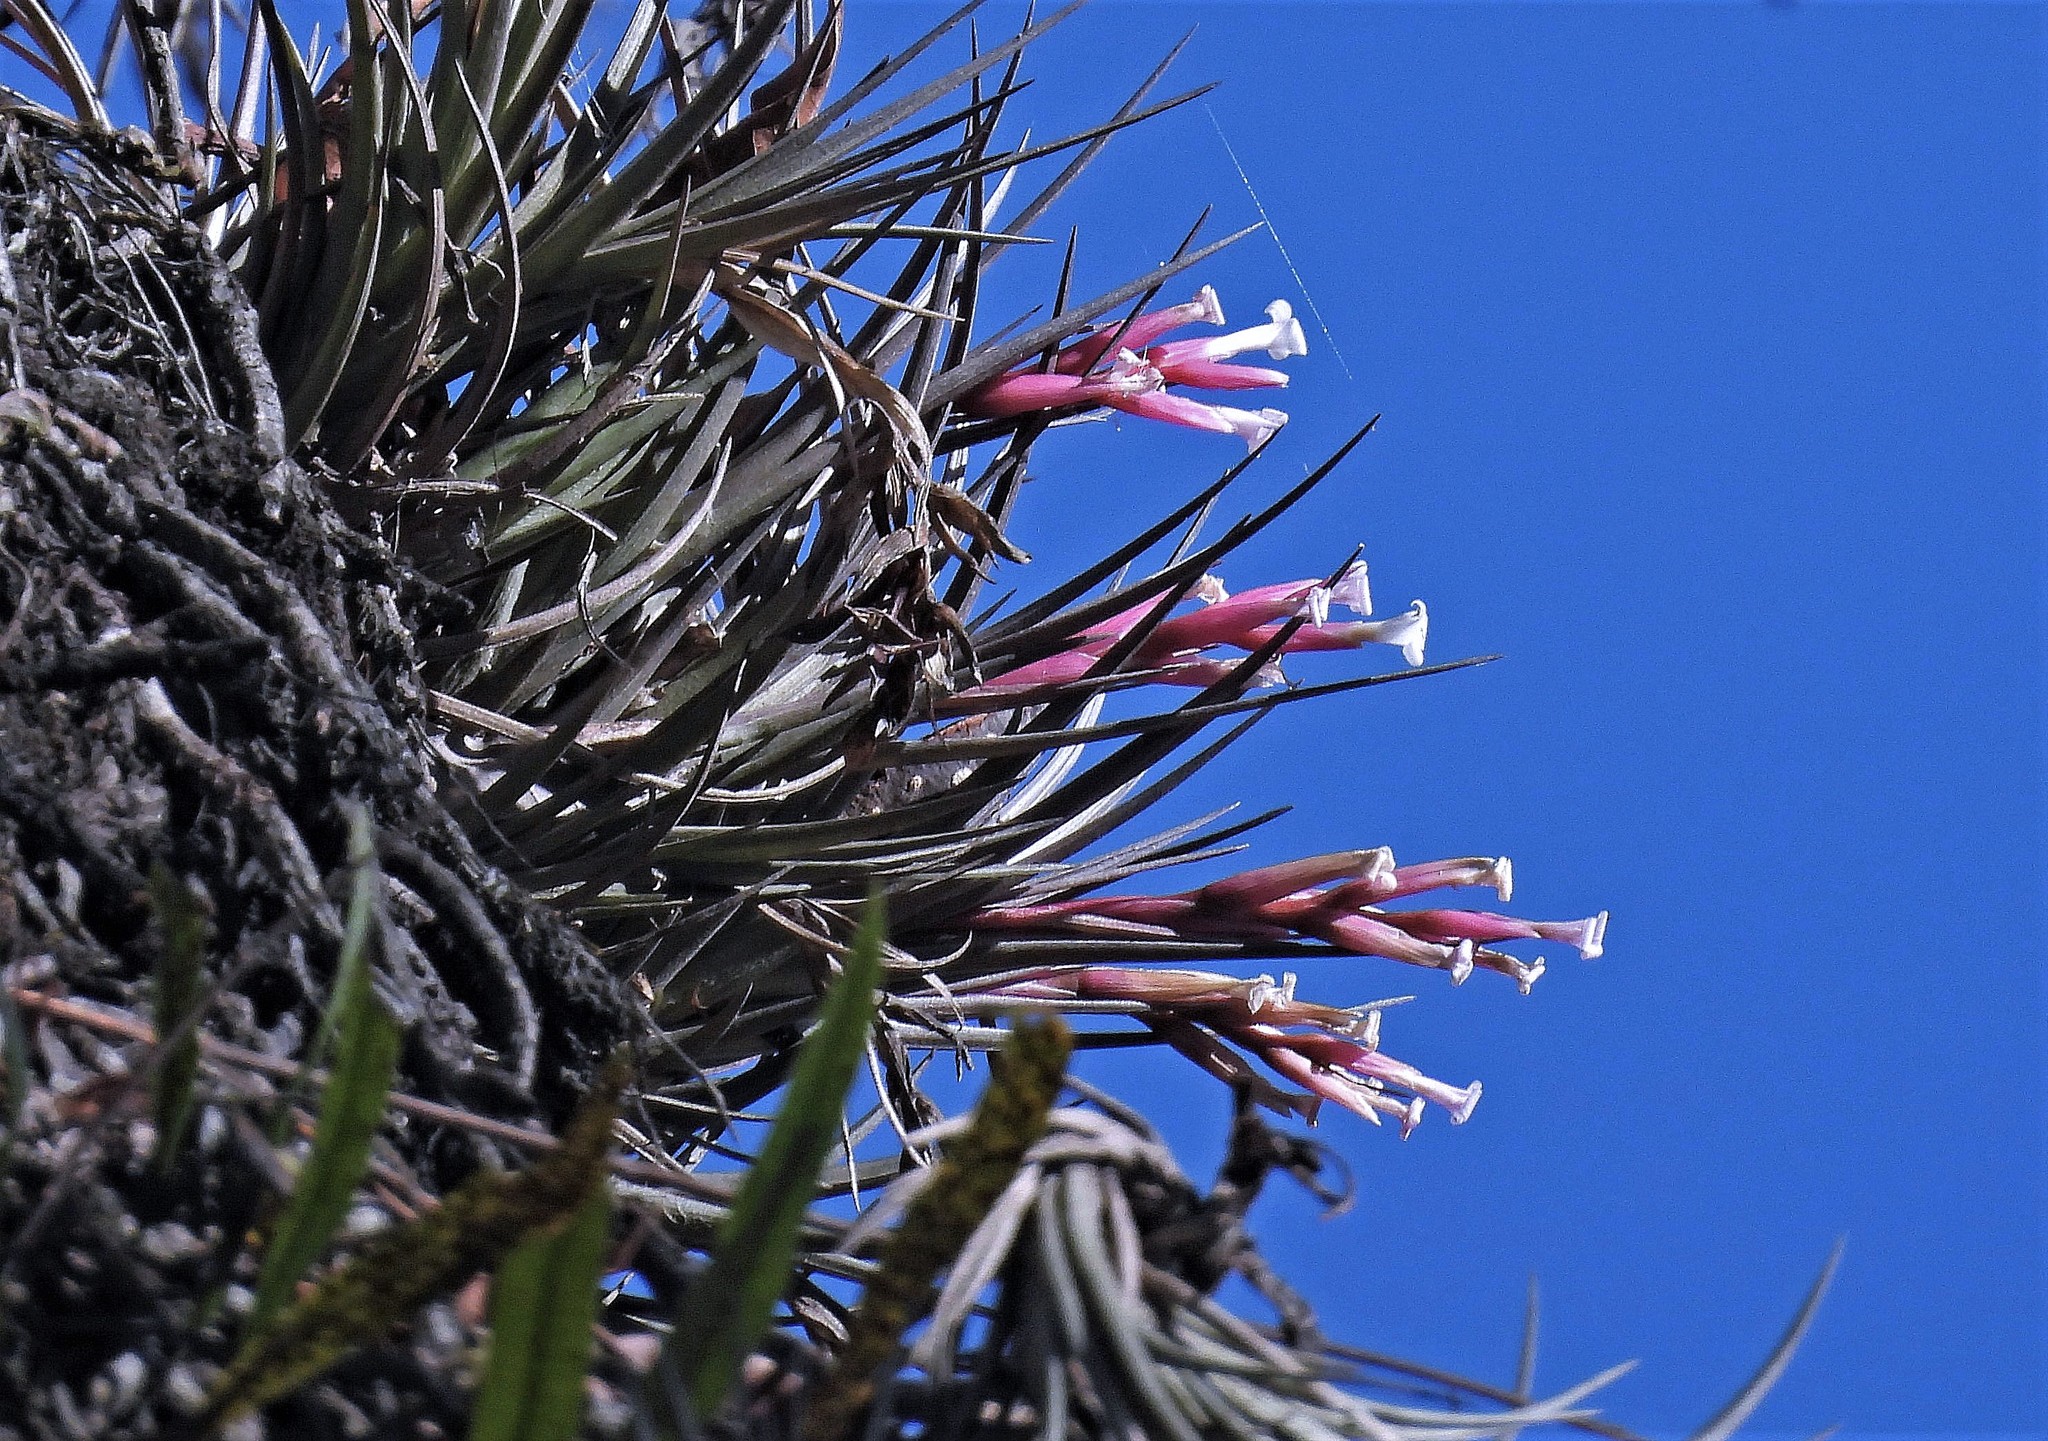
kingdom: Plantae
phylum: Tracheophyta
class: Liliopsida
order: Poales
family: Bromeliaceae
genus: Tillandsia
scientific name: Tillandsia tenuifolia
